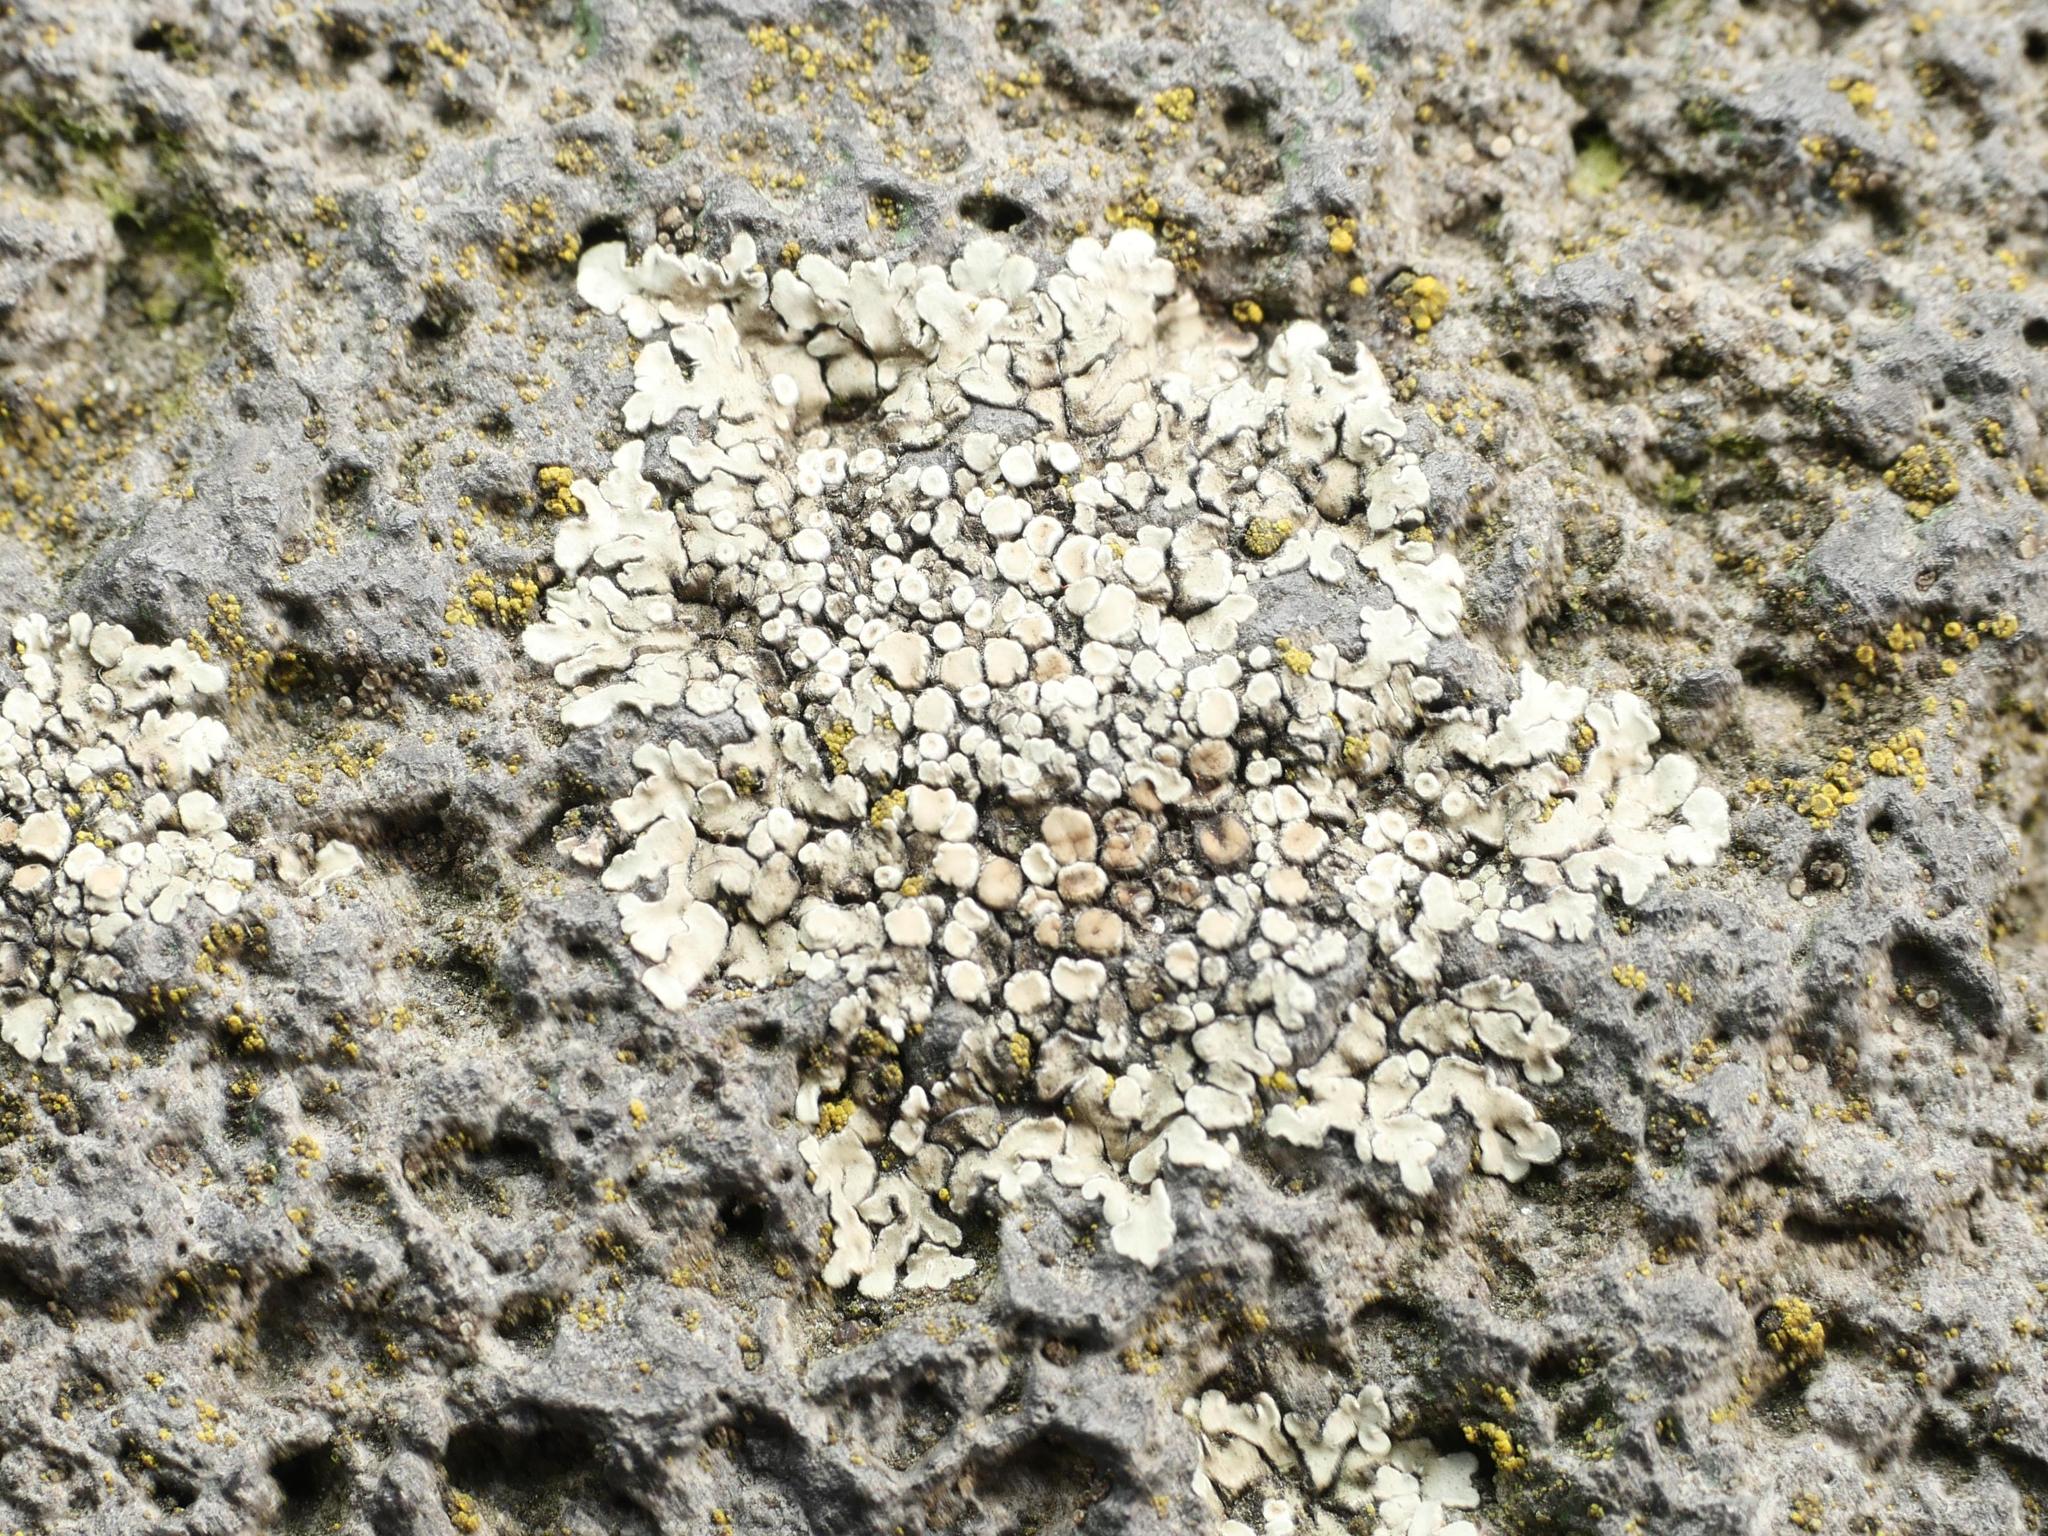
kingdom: Fungi
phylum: Ascomycota
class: Lecanoromycetes
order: Lecanorales
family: Lecanoraceae
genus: Protoparmeliopsis
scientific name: Protoparmeliopsis muralis
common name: Stonewall rim lichen
